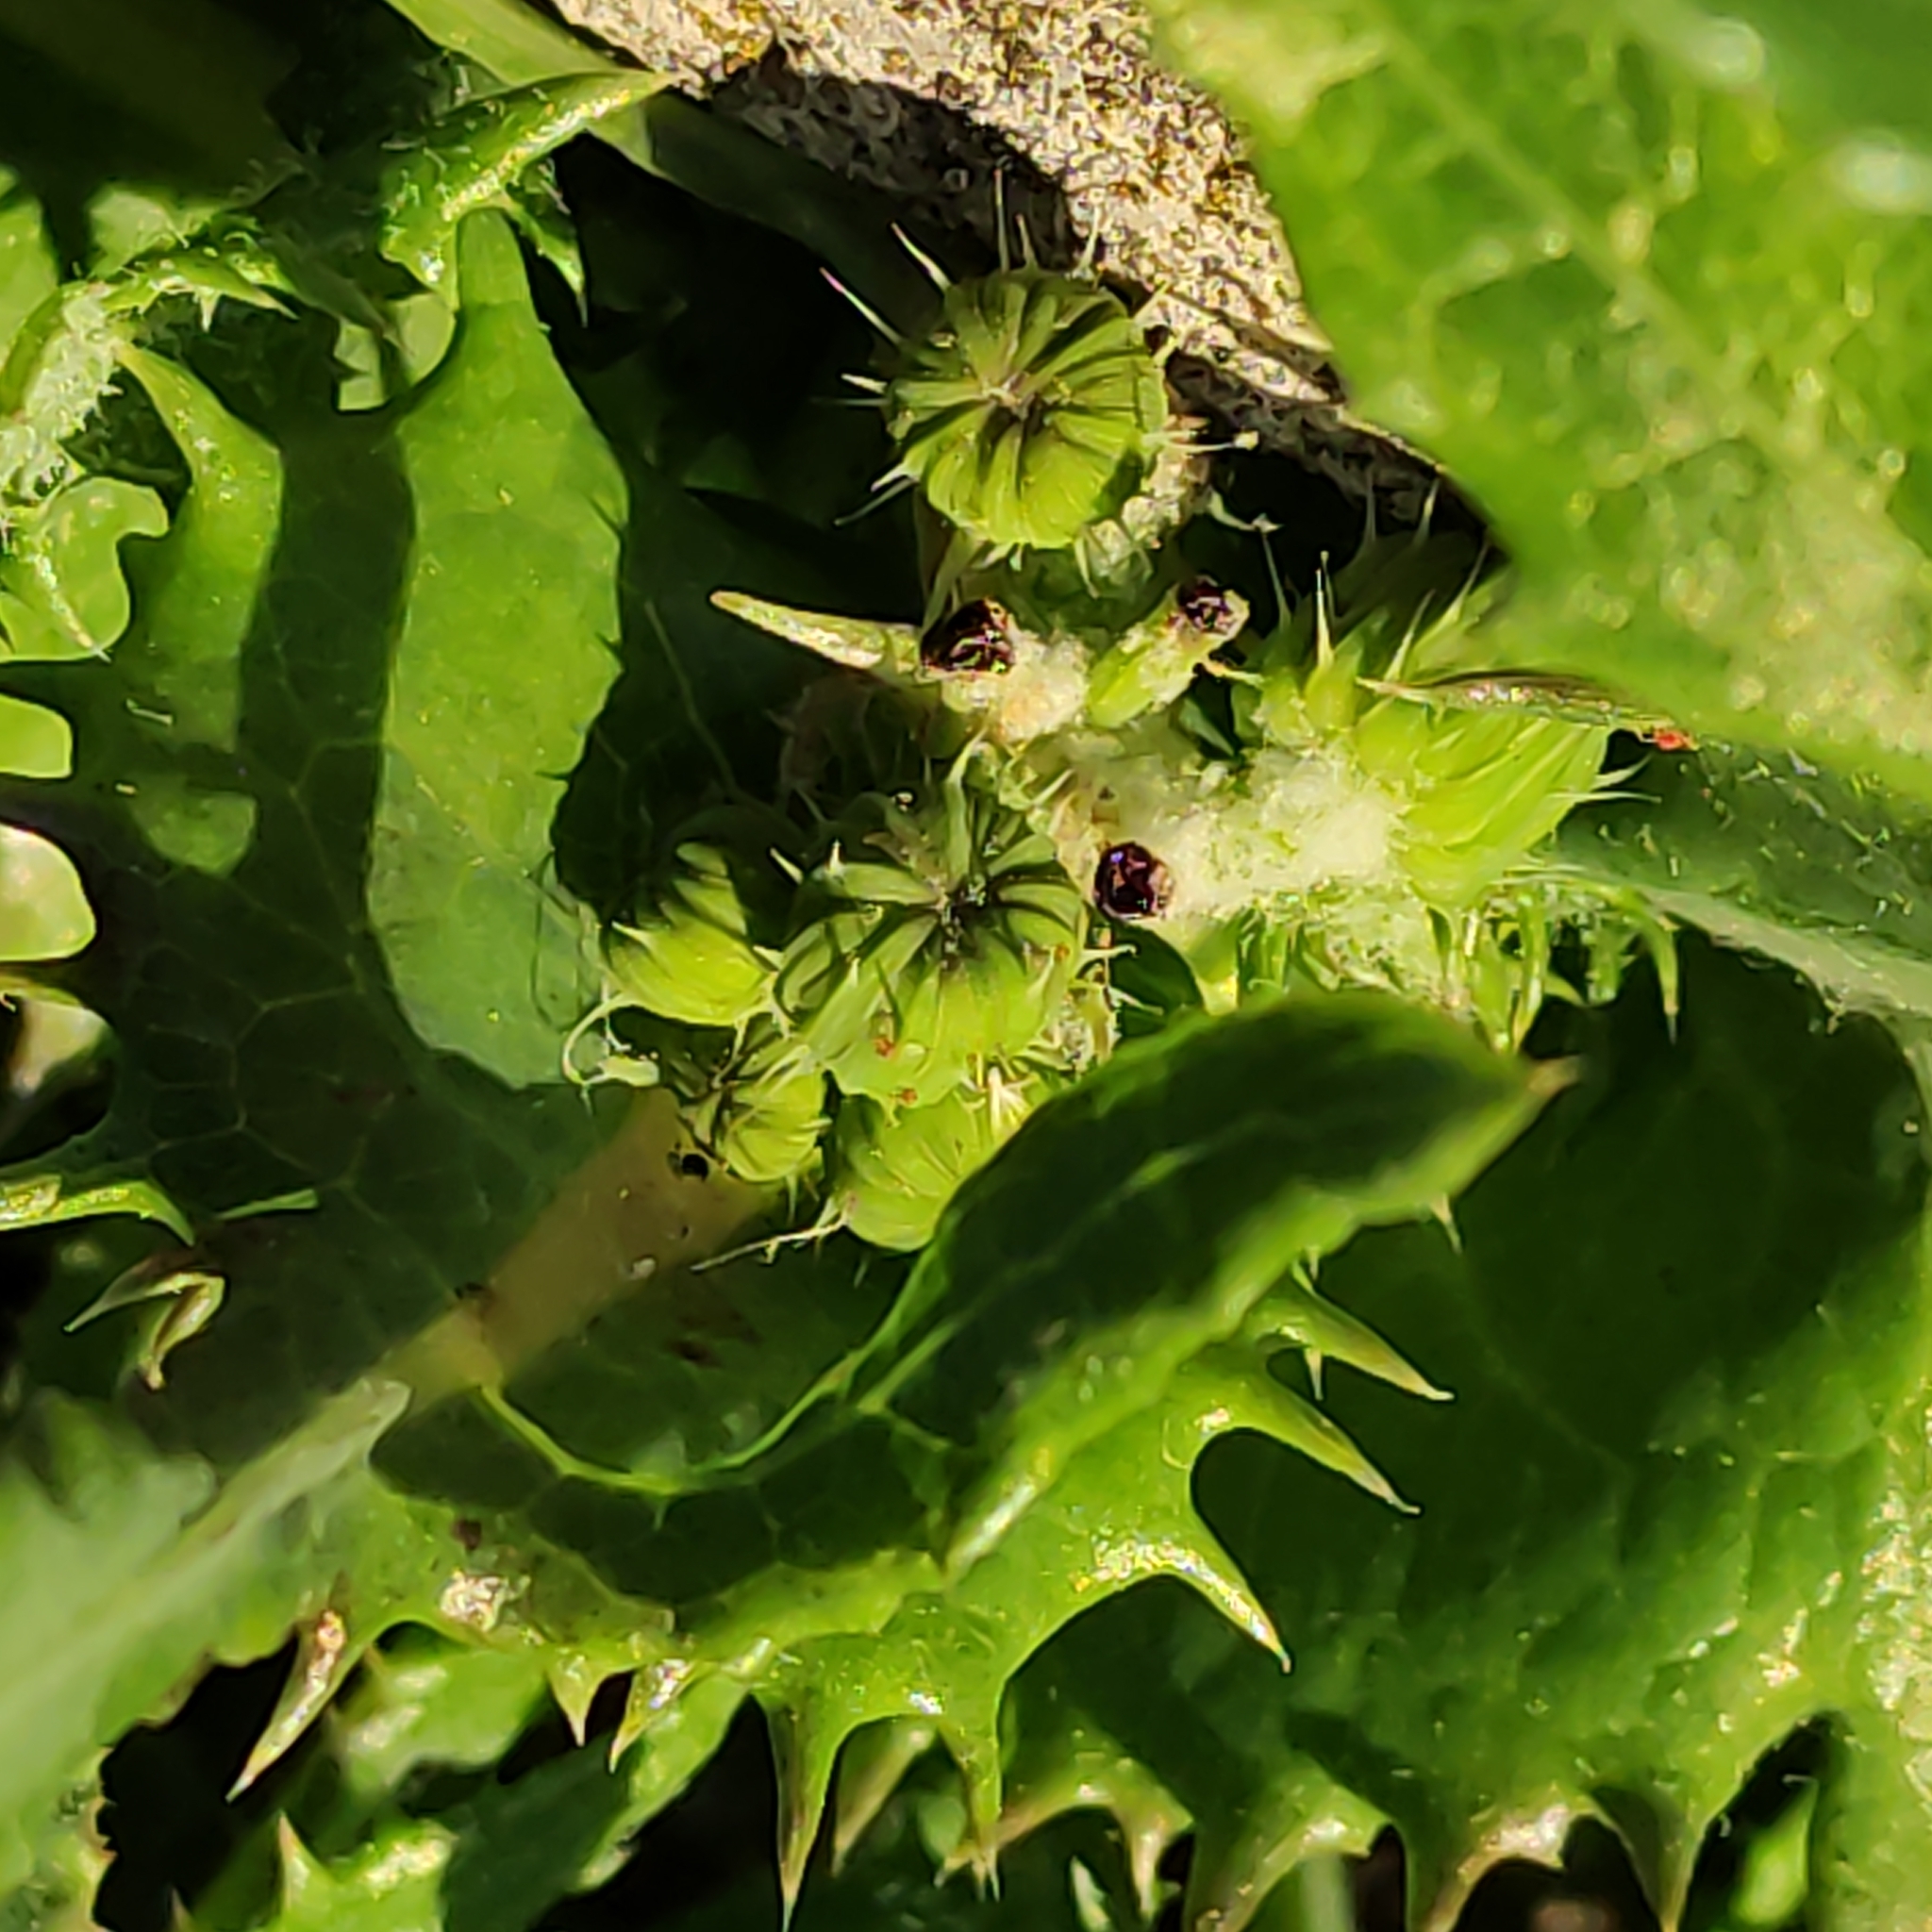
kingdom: Plantae
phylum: Tracheophyta
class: Magnoliopsida
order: Asterales
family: Asteraceae
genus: Sonchus
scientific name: Sonchus oleraceus
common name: Common sowthistle
